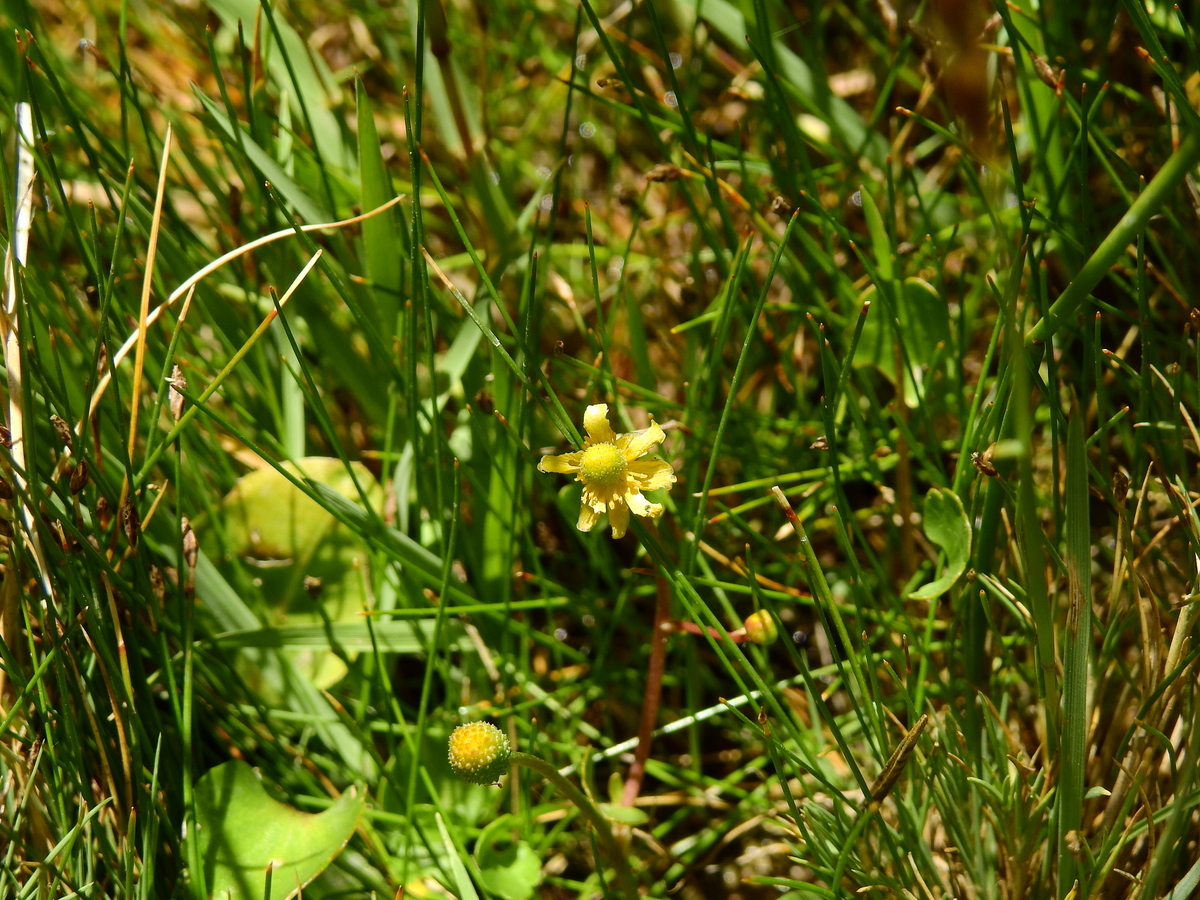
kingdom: Plantae
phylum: Tracheophyta
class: Magnoliopsida
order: Ranunculales
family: Ranunculaceae
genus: Halerpestes
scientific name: Halerpestes cymbalaria
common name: Seaside crowfoot
